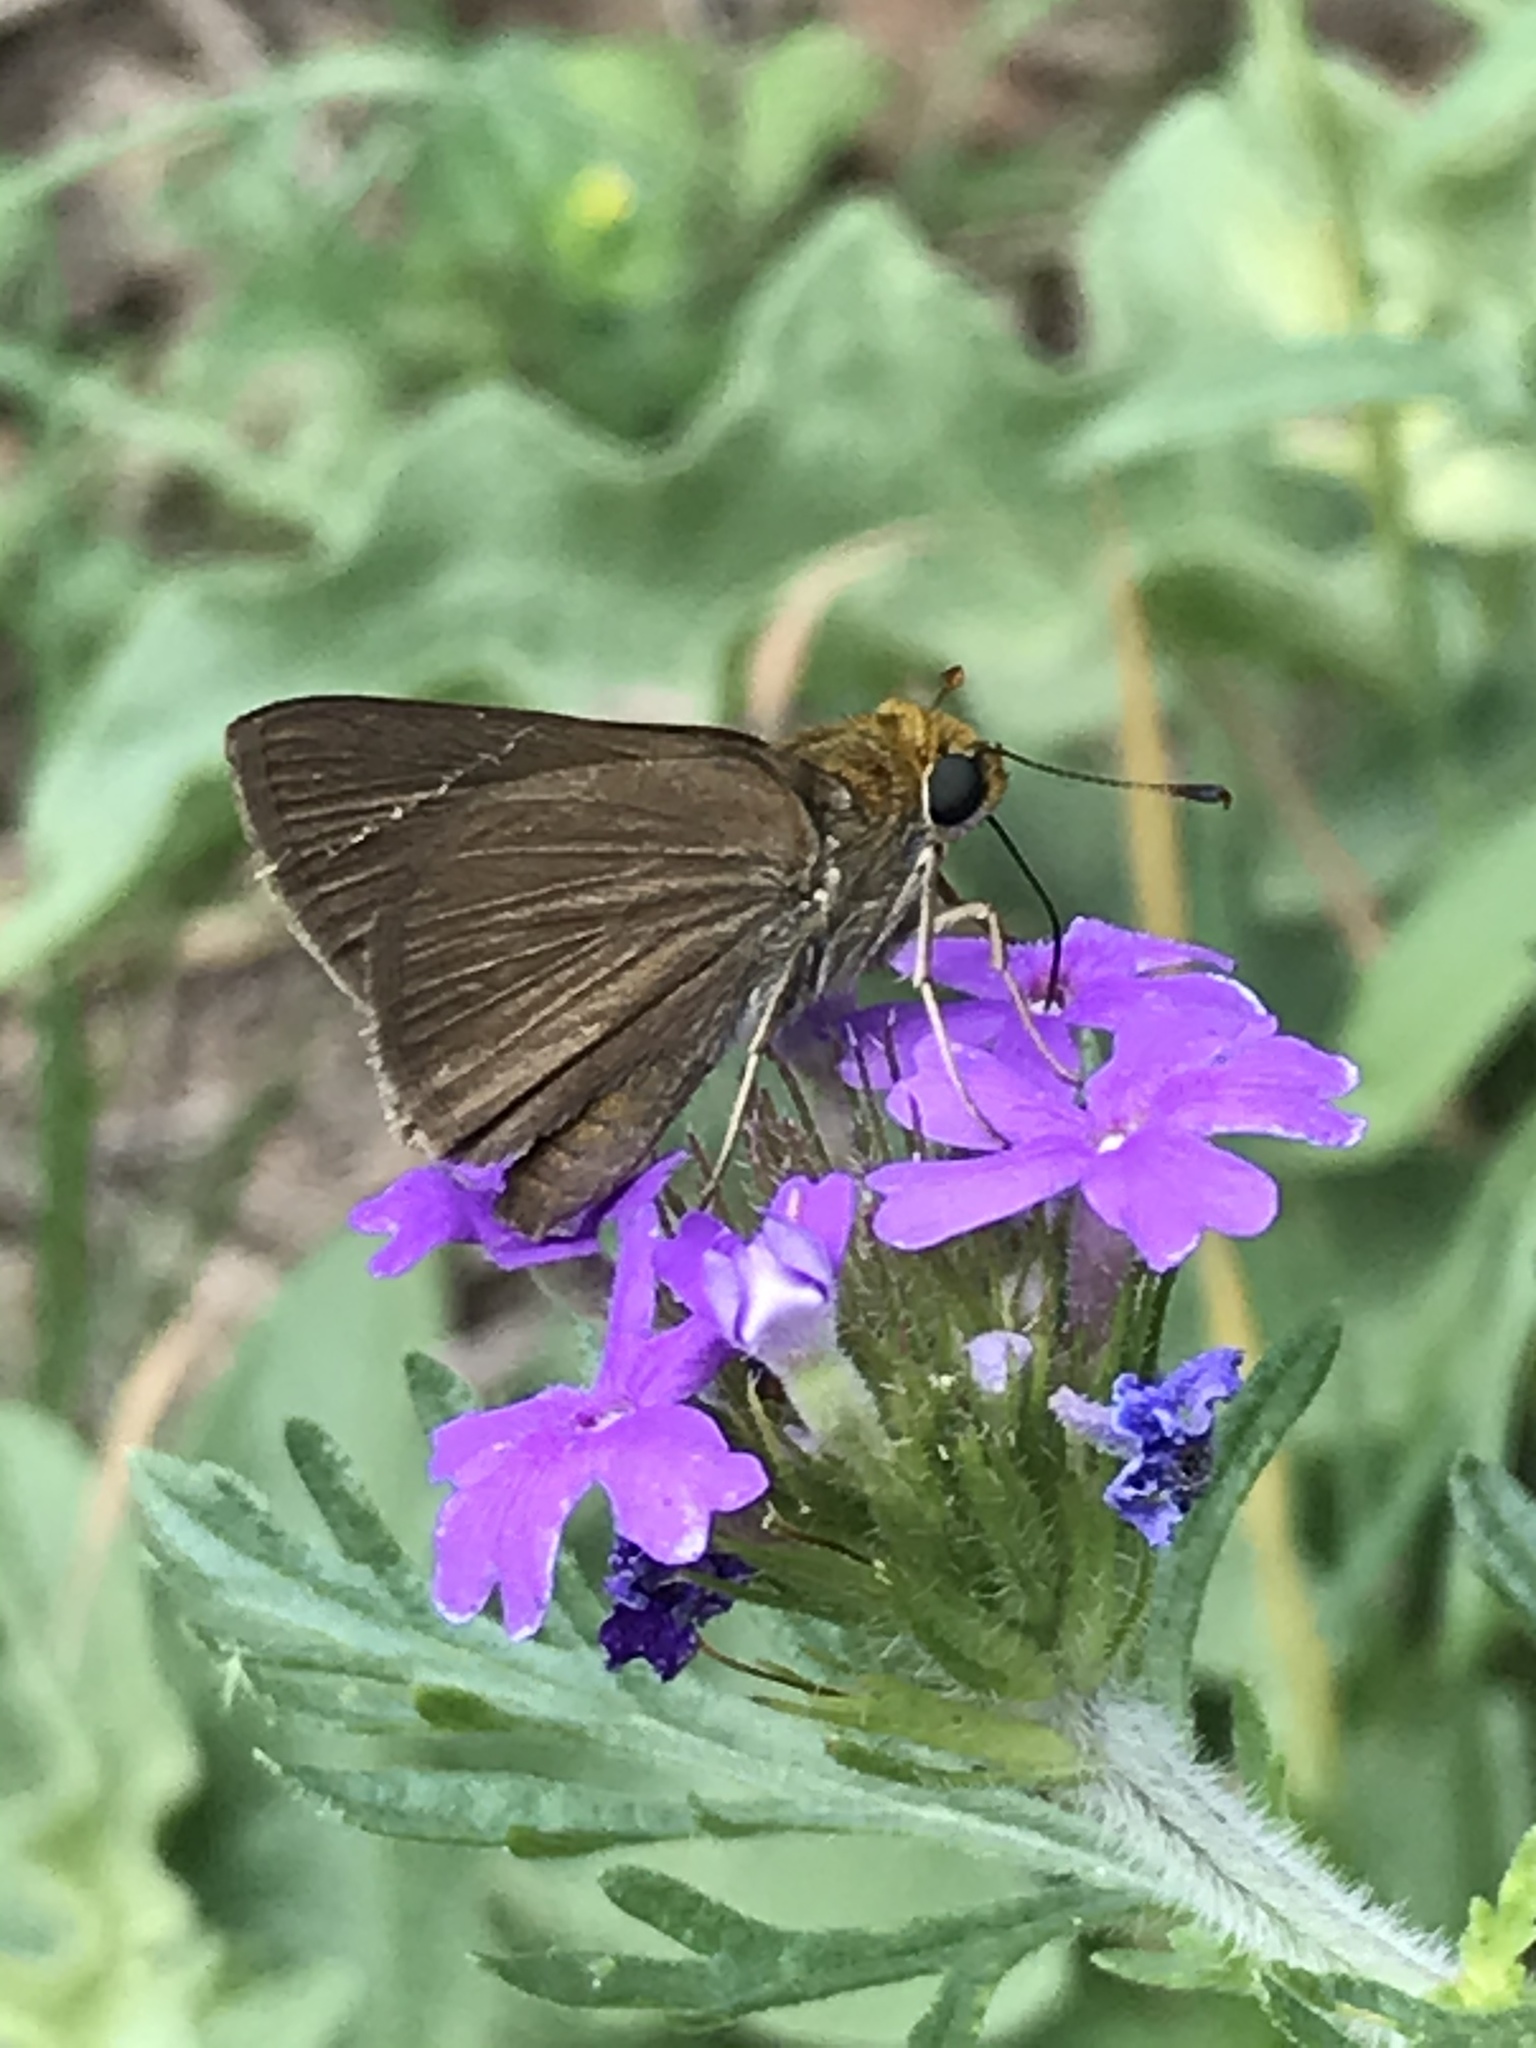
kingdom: Animalia
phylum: Arthropoda
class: Insecta
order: Lepidoptera
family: Hesperiidae
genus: Euphyes
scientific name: Euphyes vestris
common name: Dun skipper
